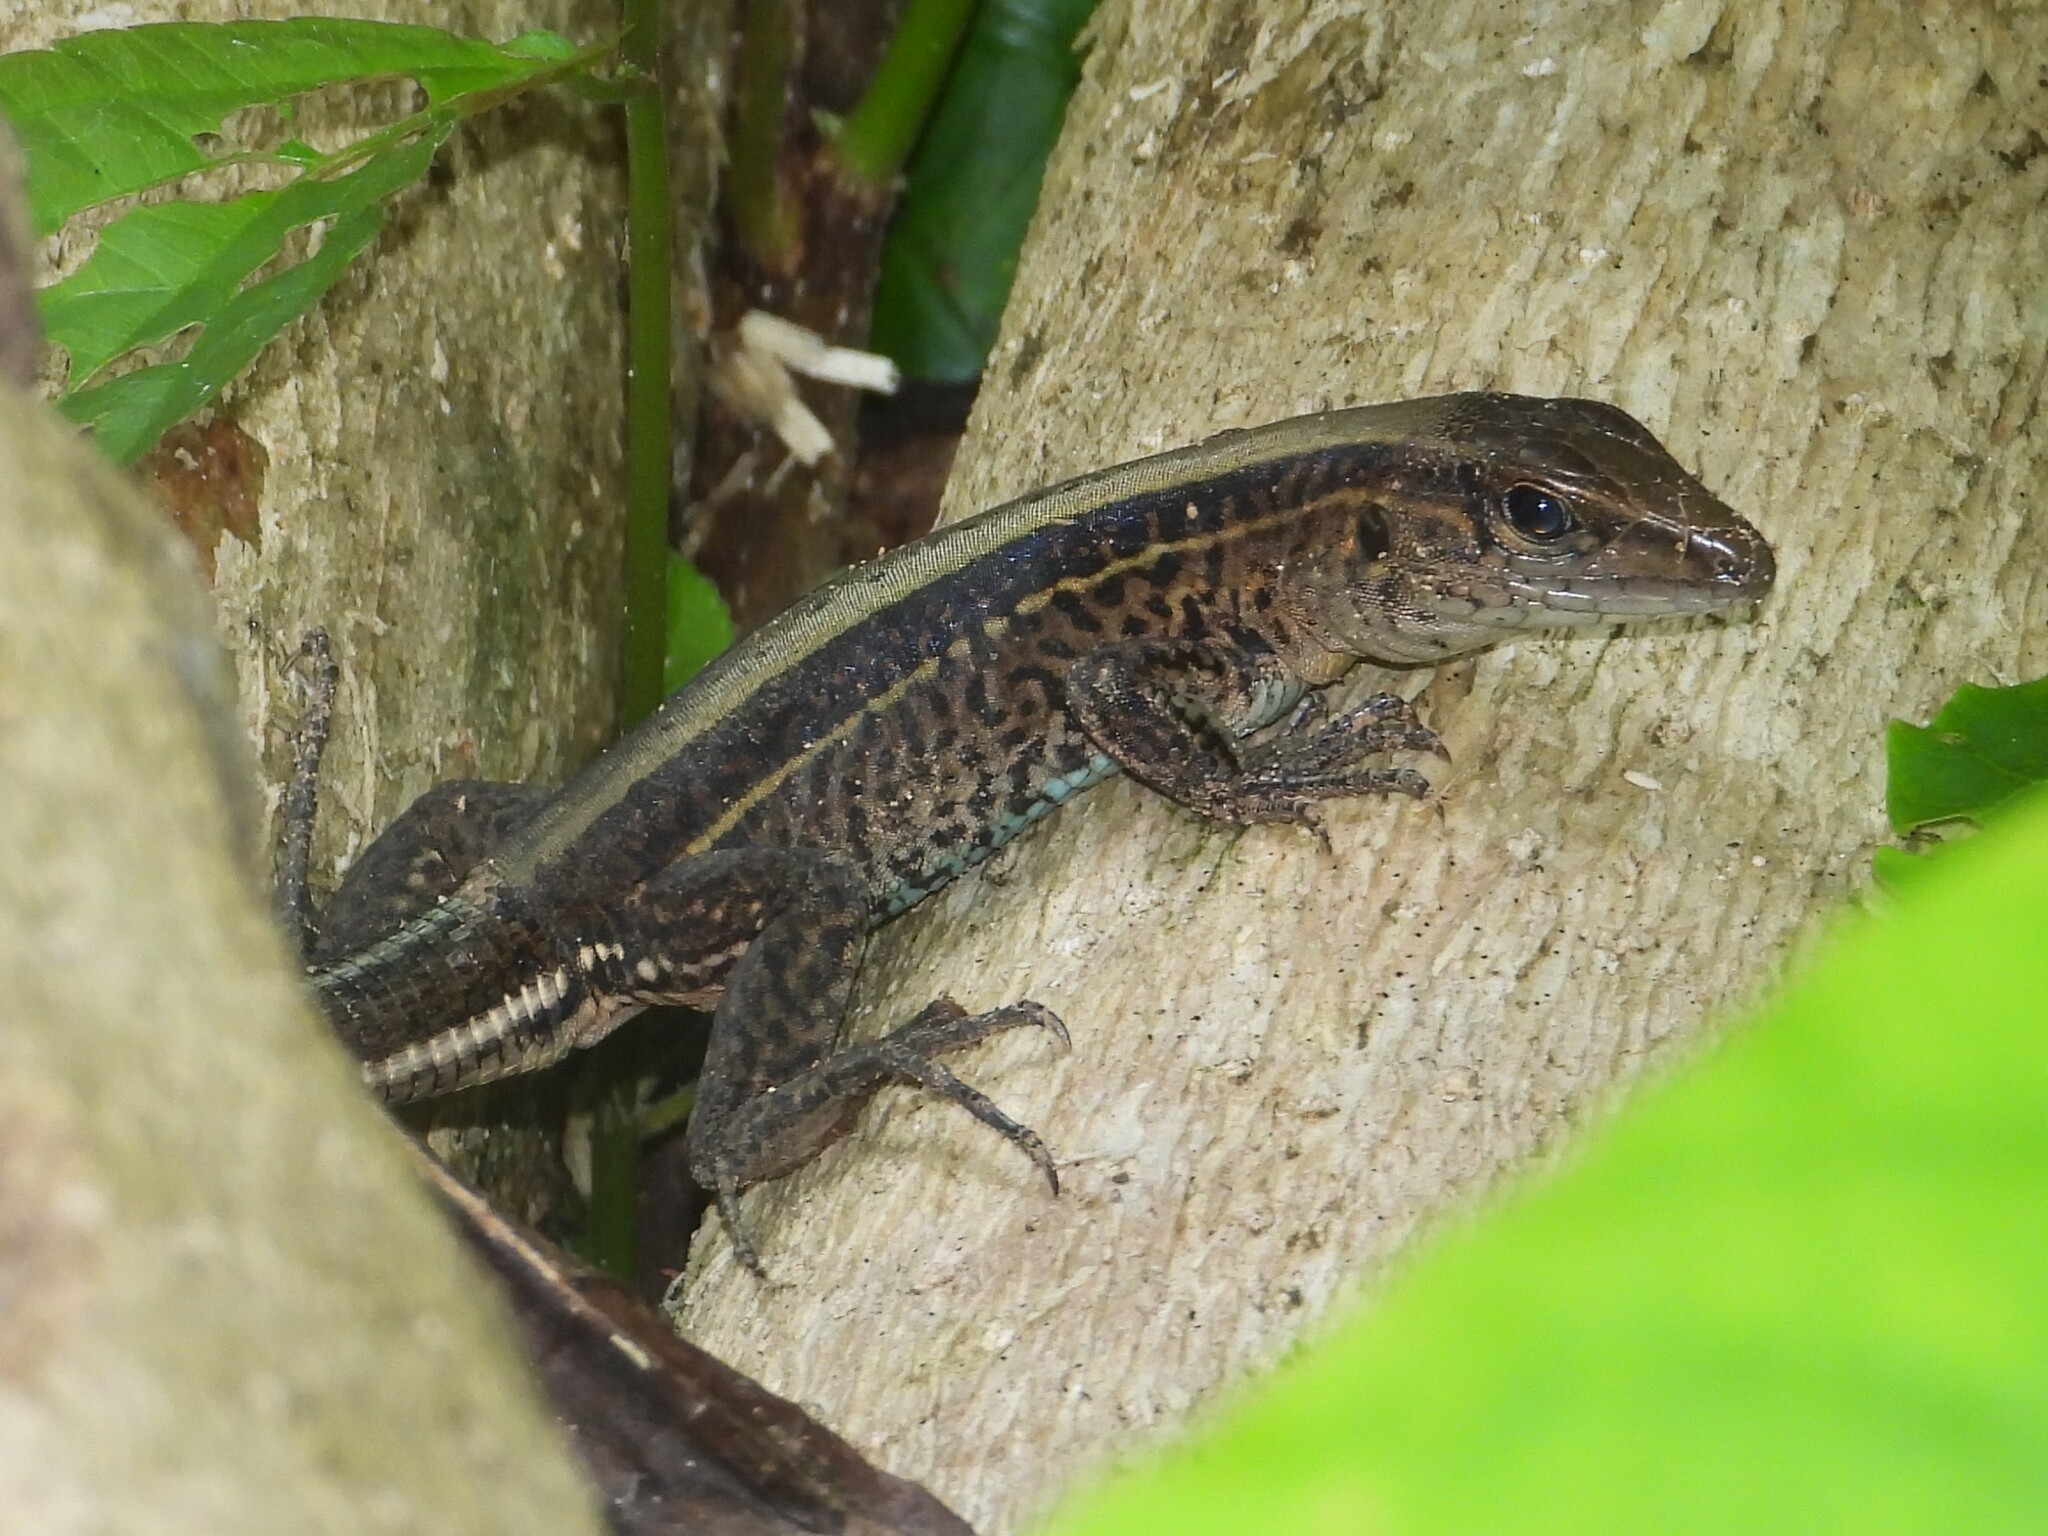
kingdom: Animalia
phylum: Chordata
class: Squamata
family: Teiidae
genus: Holcosus
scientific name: Holcosus quadrilineatus
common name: Four-lined ameiva
